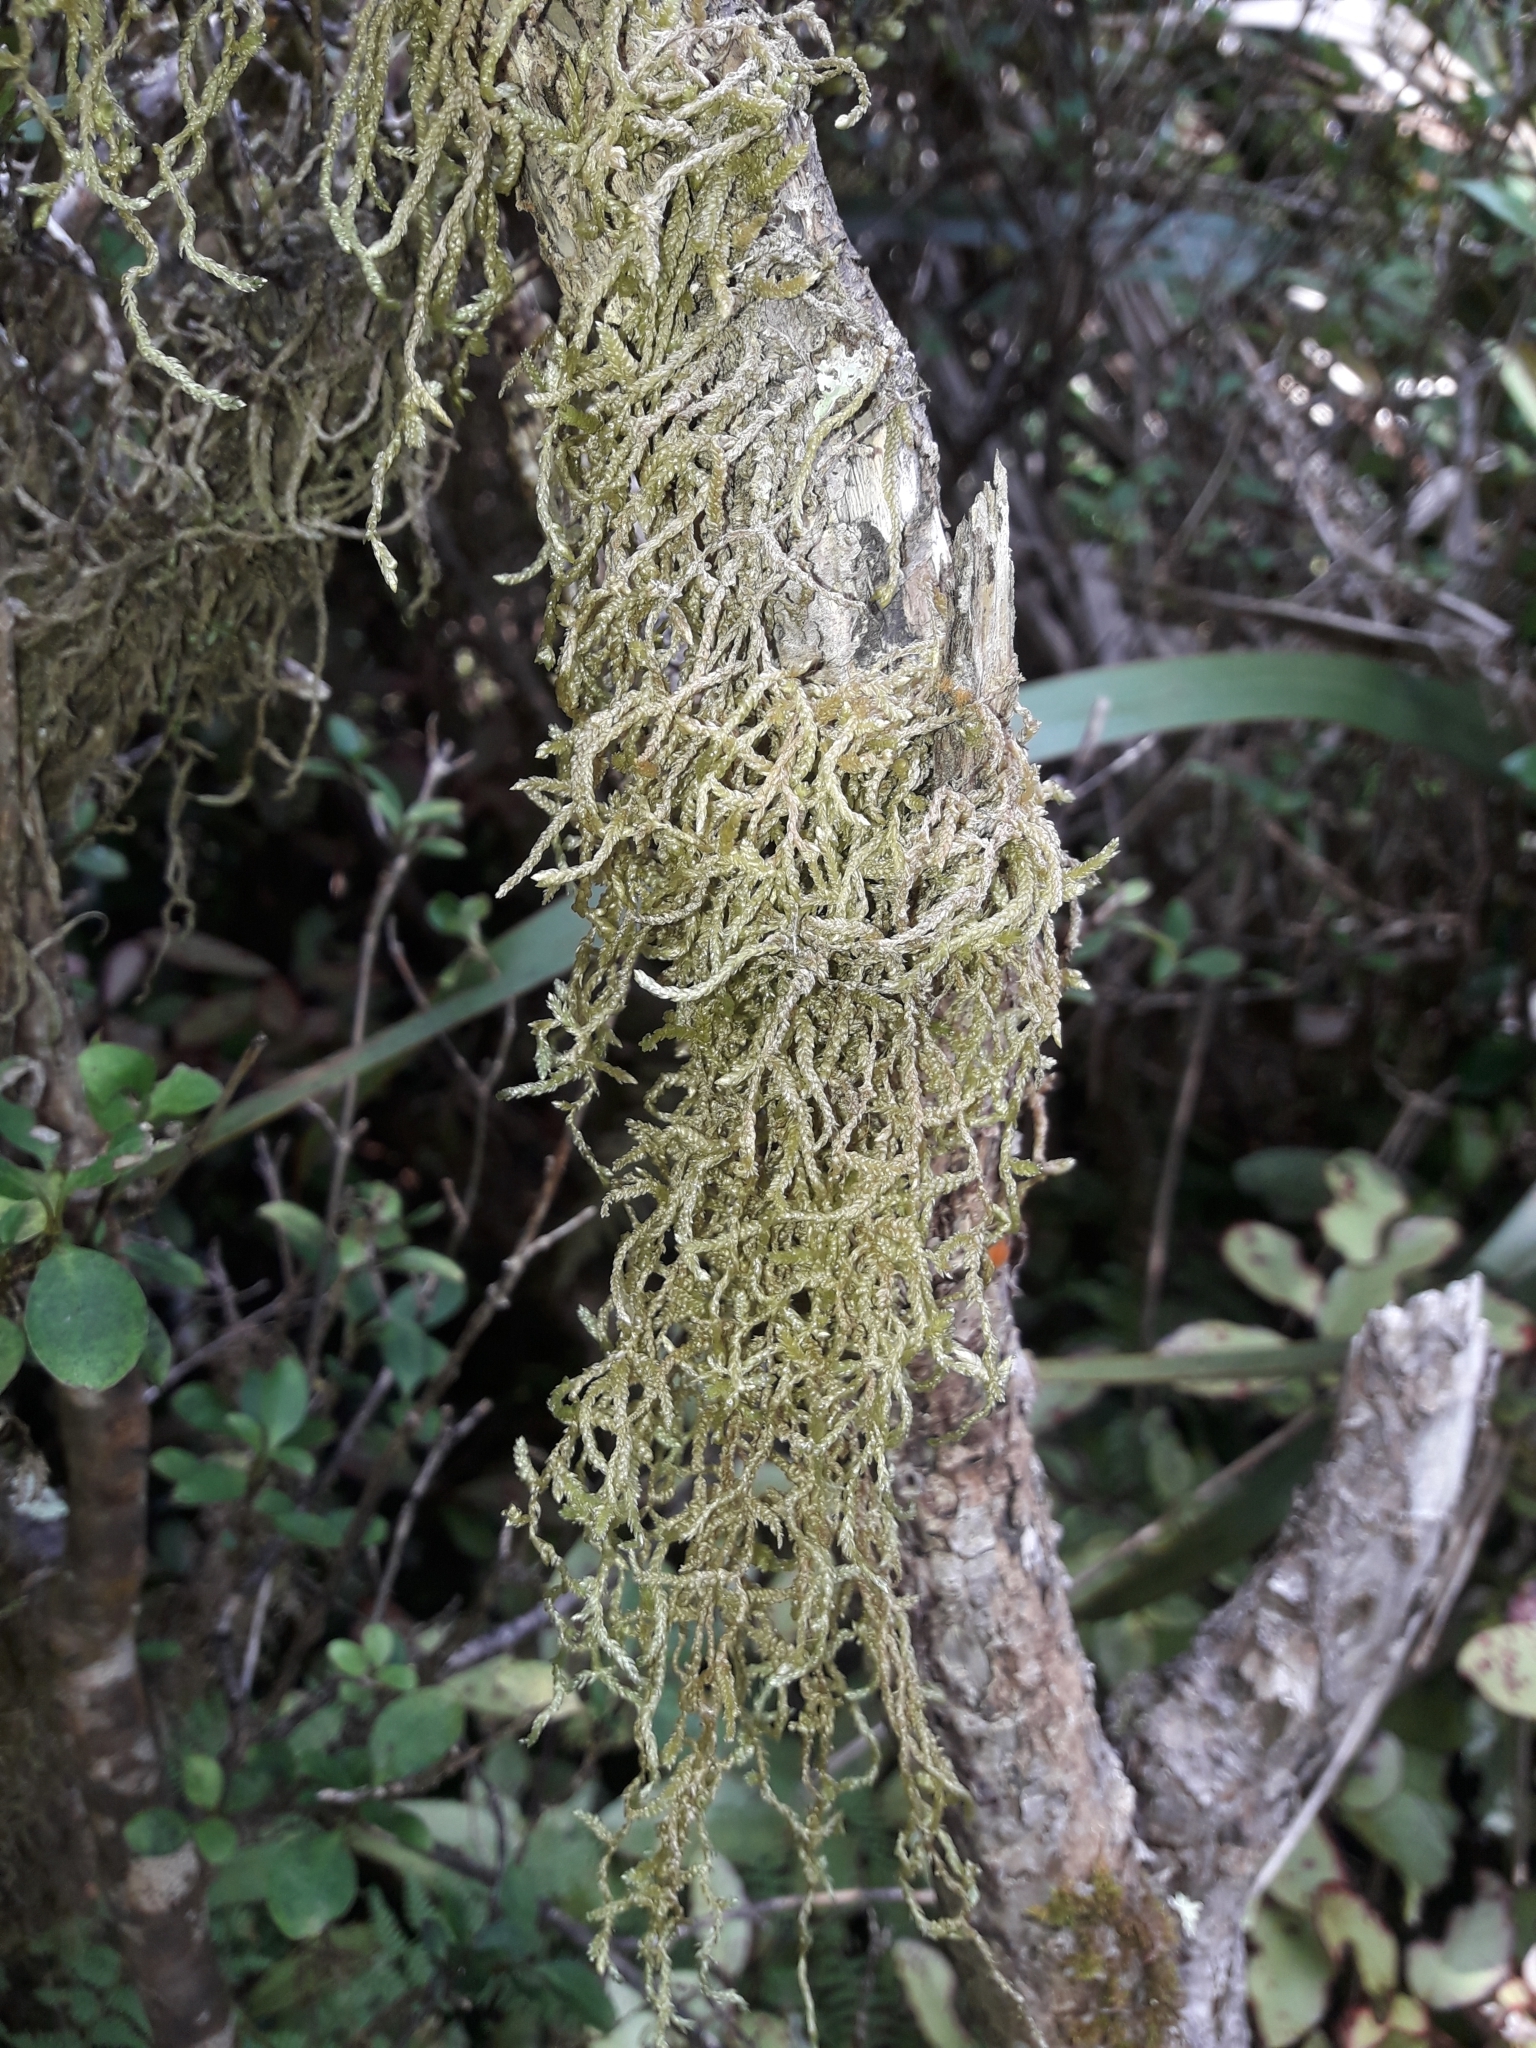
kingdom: Plantae
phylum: Bryophyta
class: Bryopsida
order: Hypnales
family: Lembophyllaceae
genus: Weymouthia
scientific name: Weymouthia mollis
